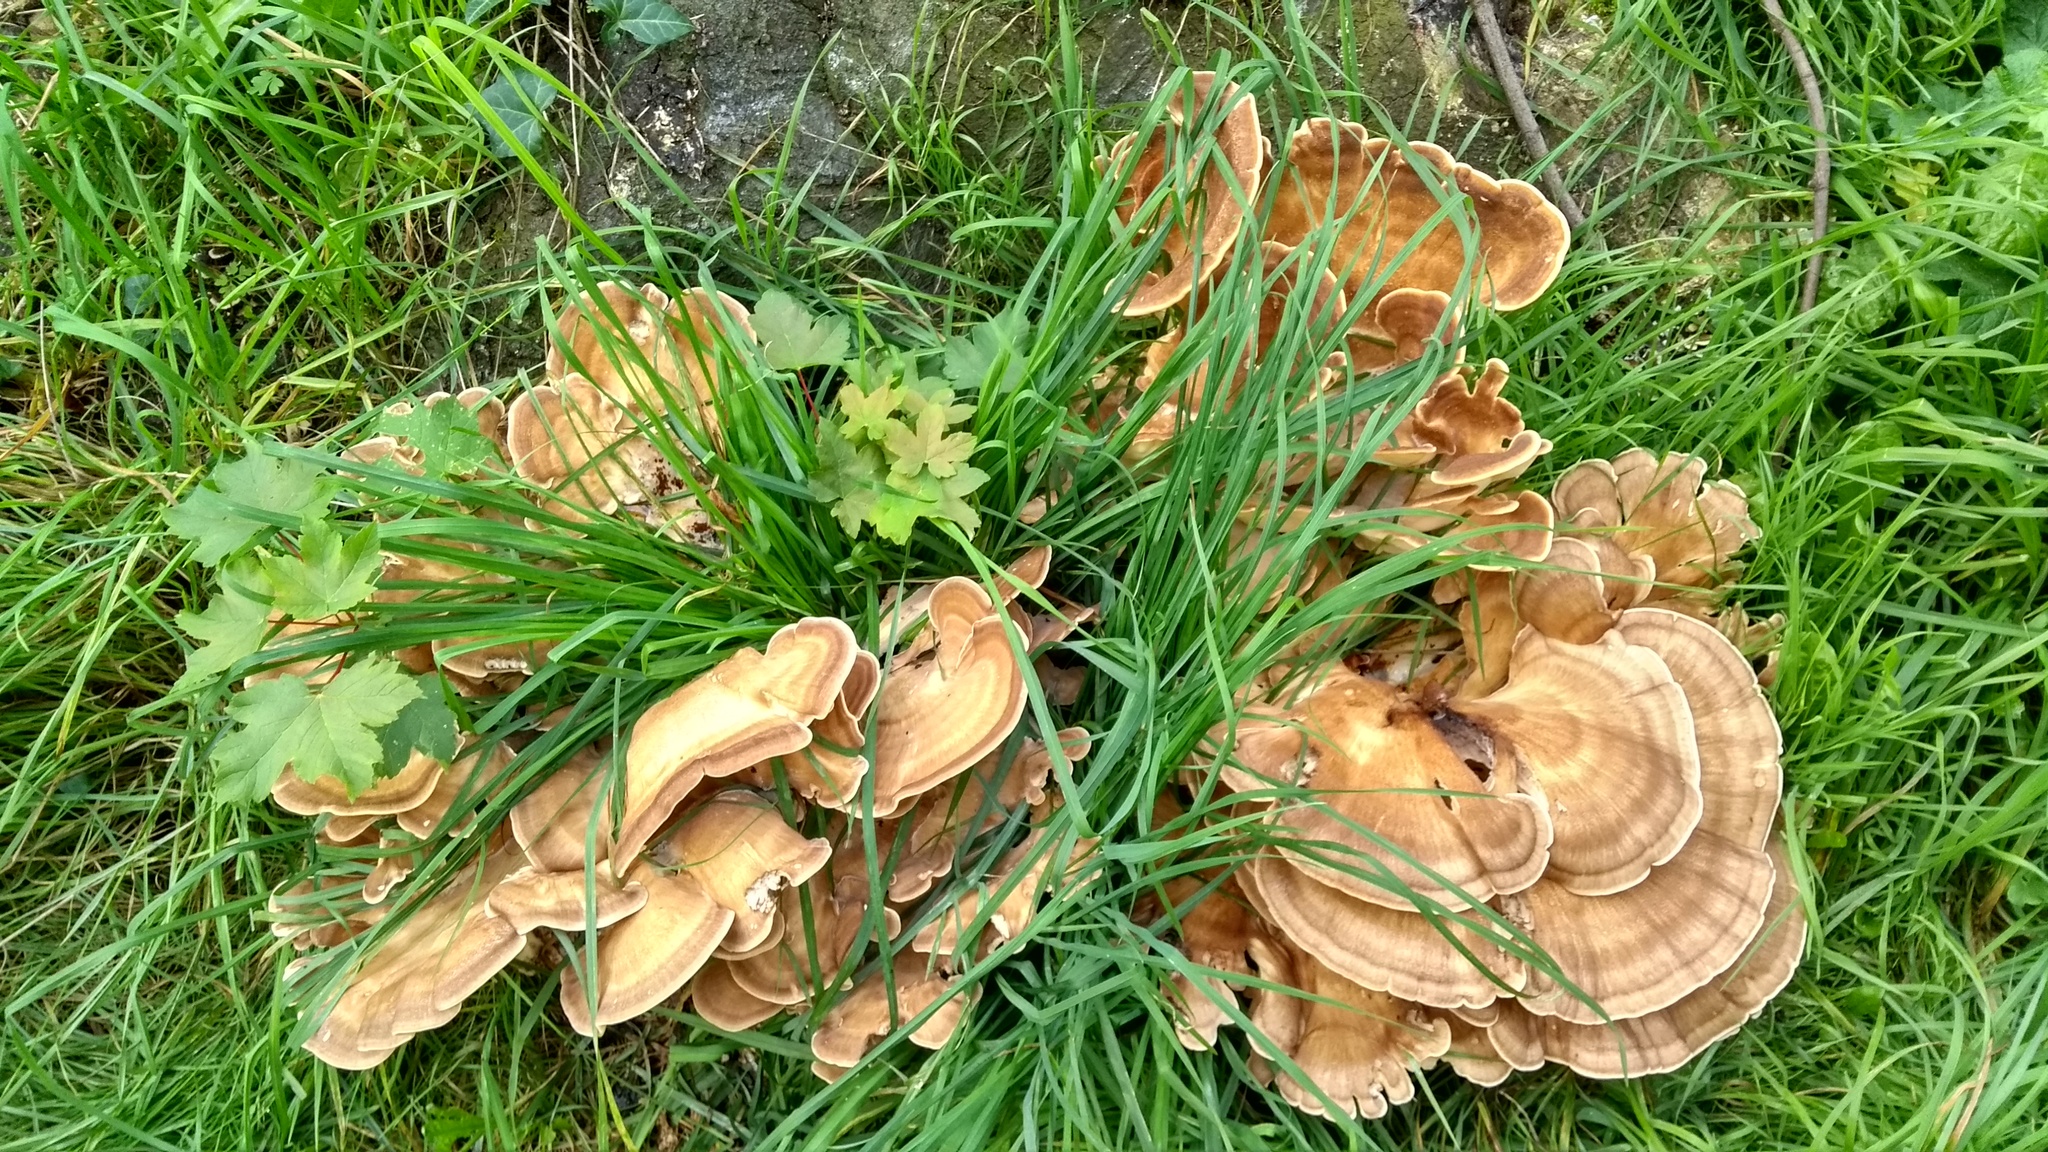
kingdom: Fungi
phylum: Basidiomycota
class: Agaricomycetes
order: Polyporales
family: Meripilaceae
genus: Meripilus
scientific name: Meripilus giganteus
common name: Giant polypore
